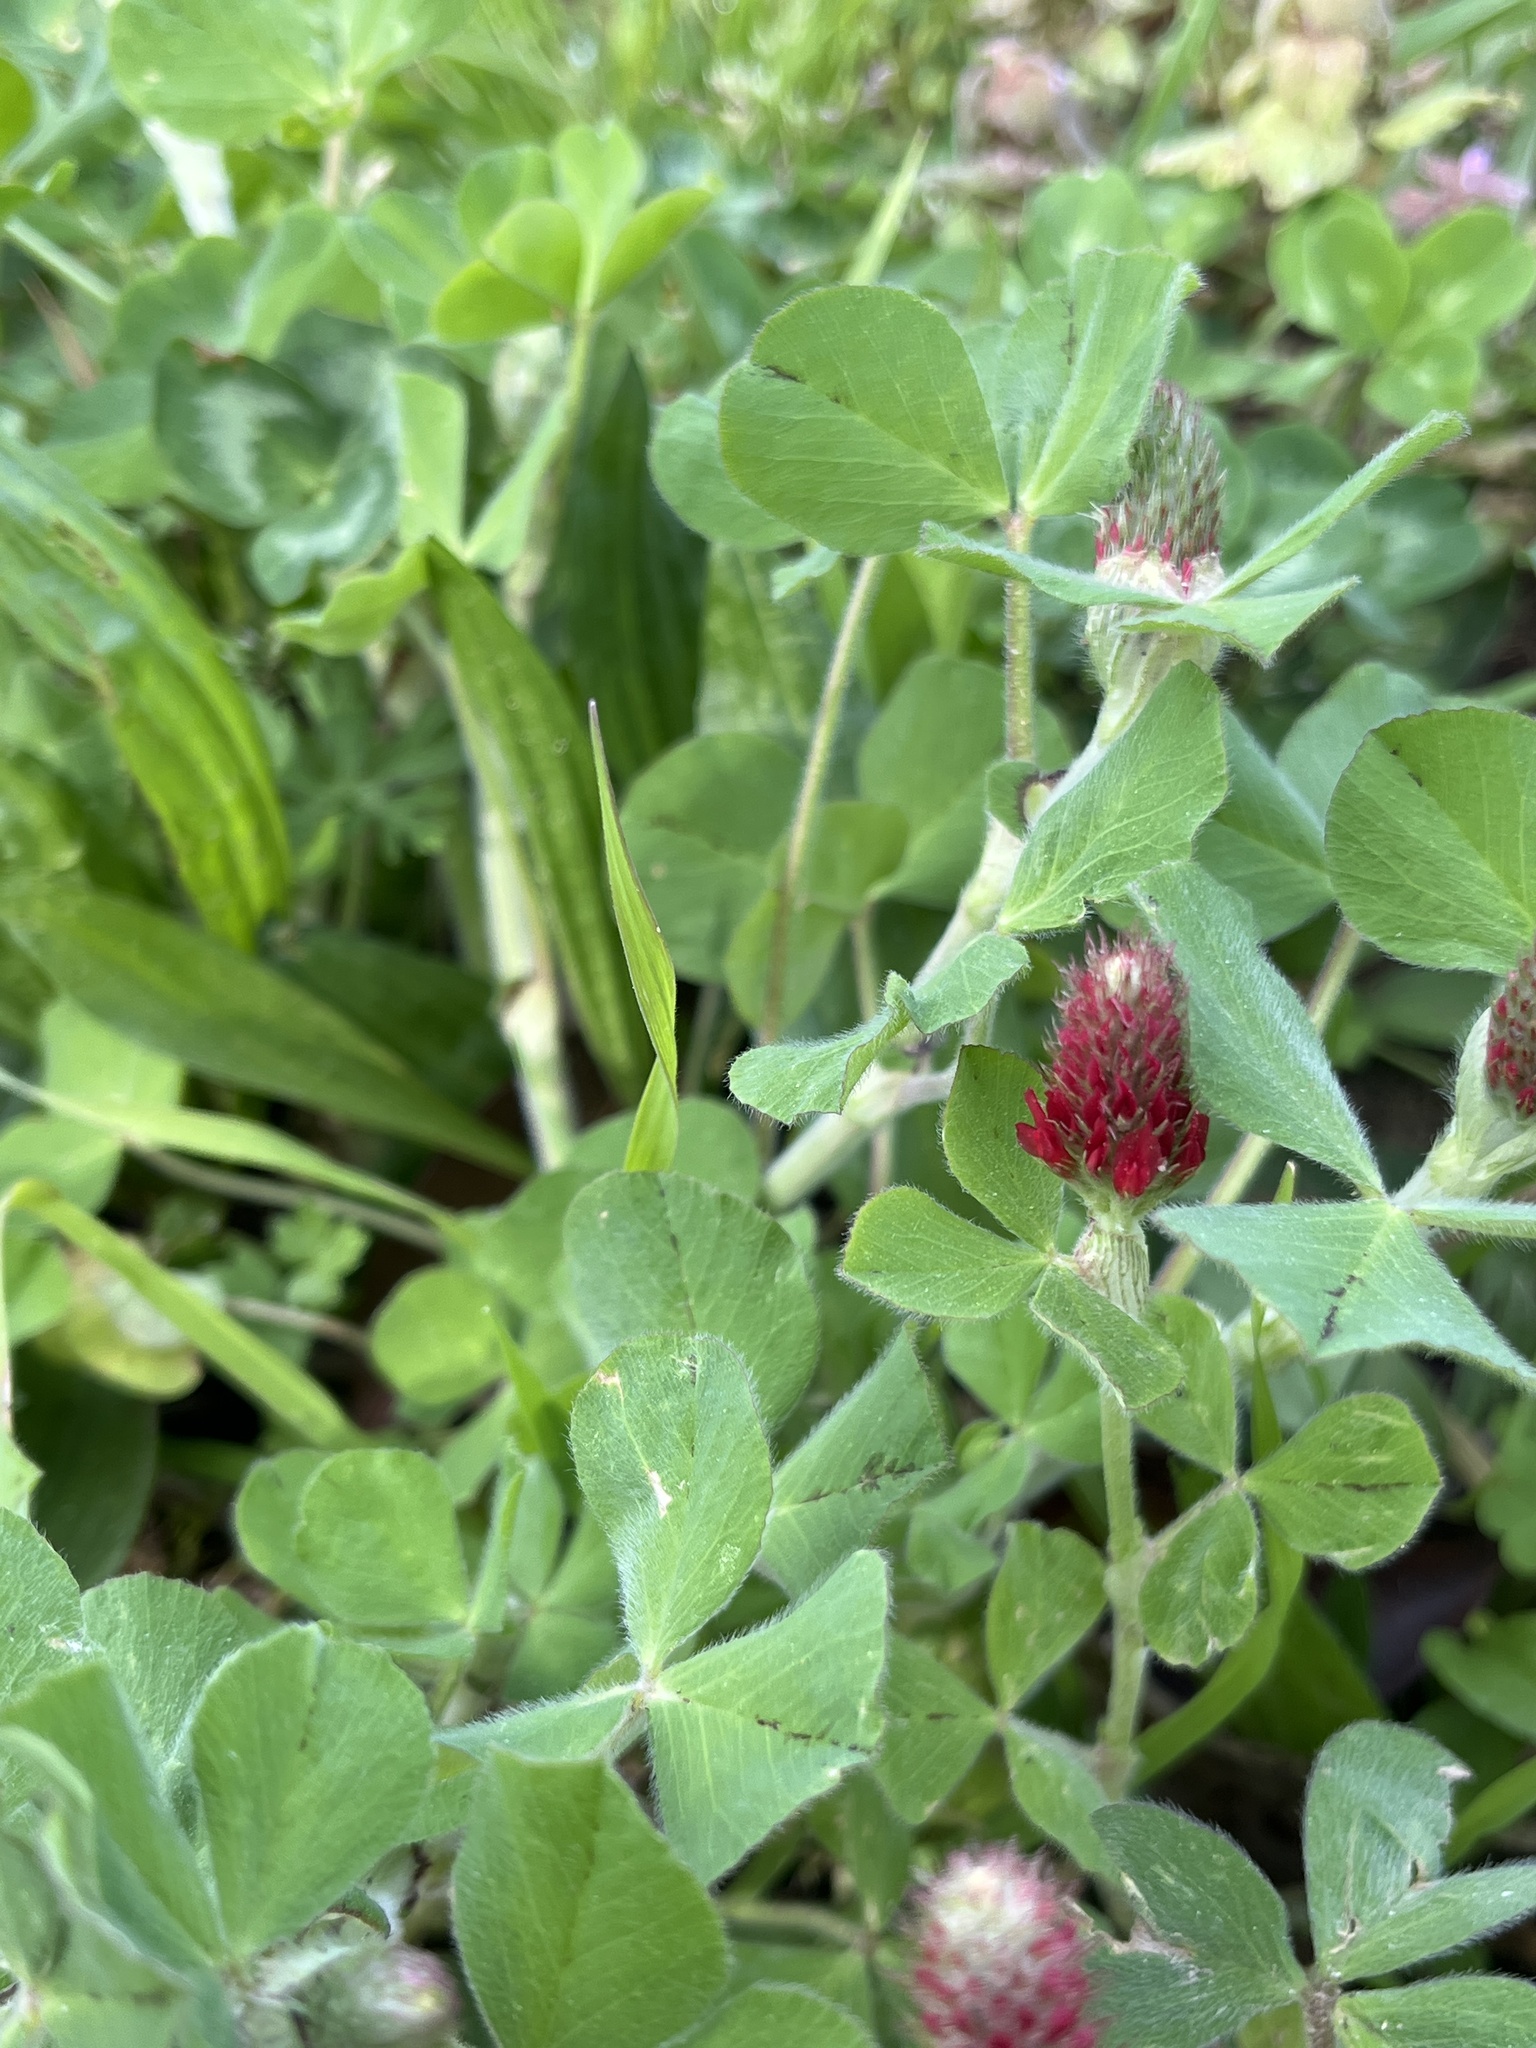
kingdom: Plantae
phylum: Tracheophyta
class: Magnoliopsida
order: Fabales
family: Fabaceae
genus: Trifolium
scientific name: Trifolium incarnatum
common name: Crimson clover
